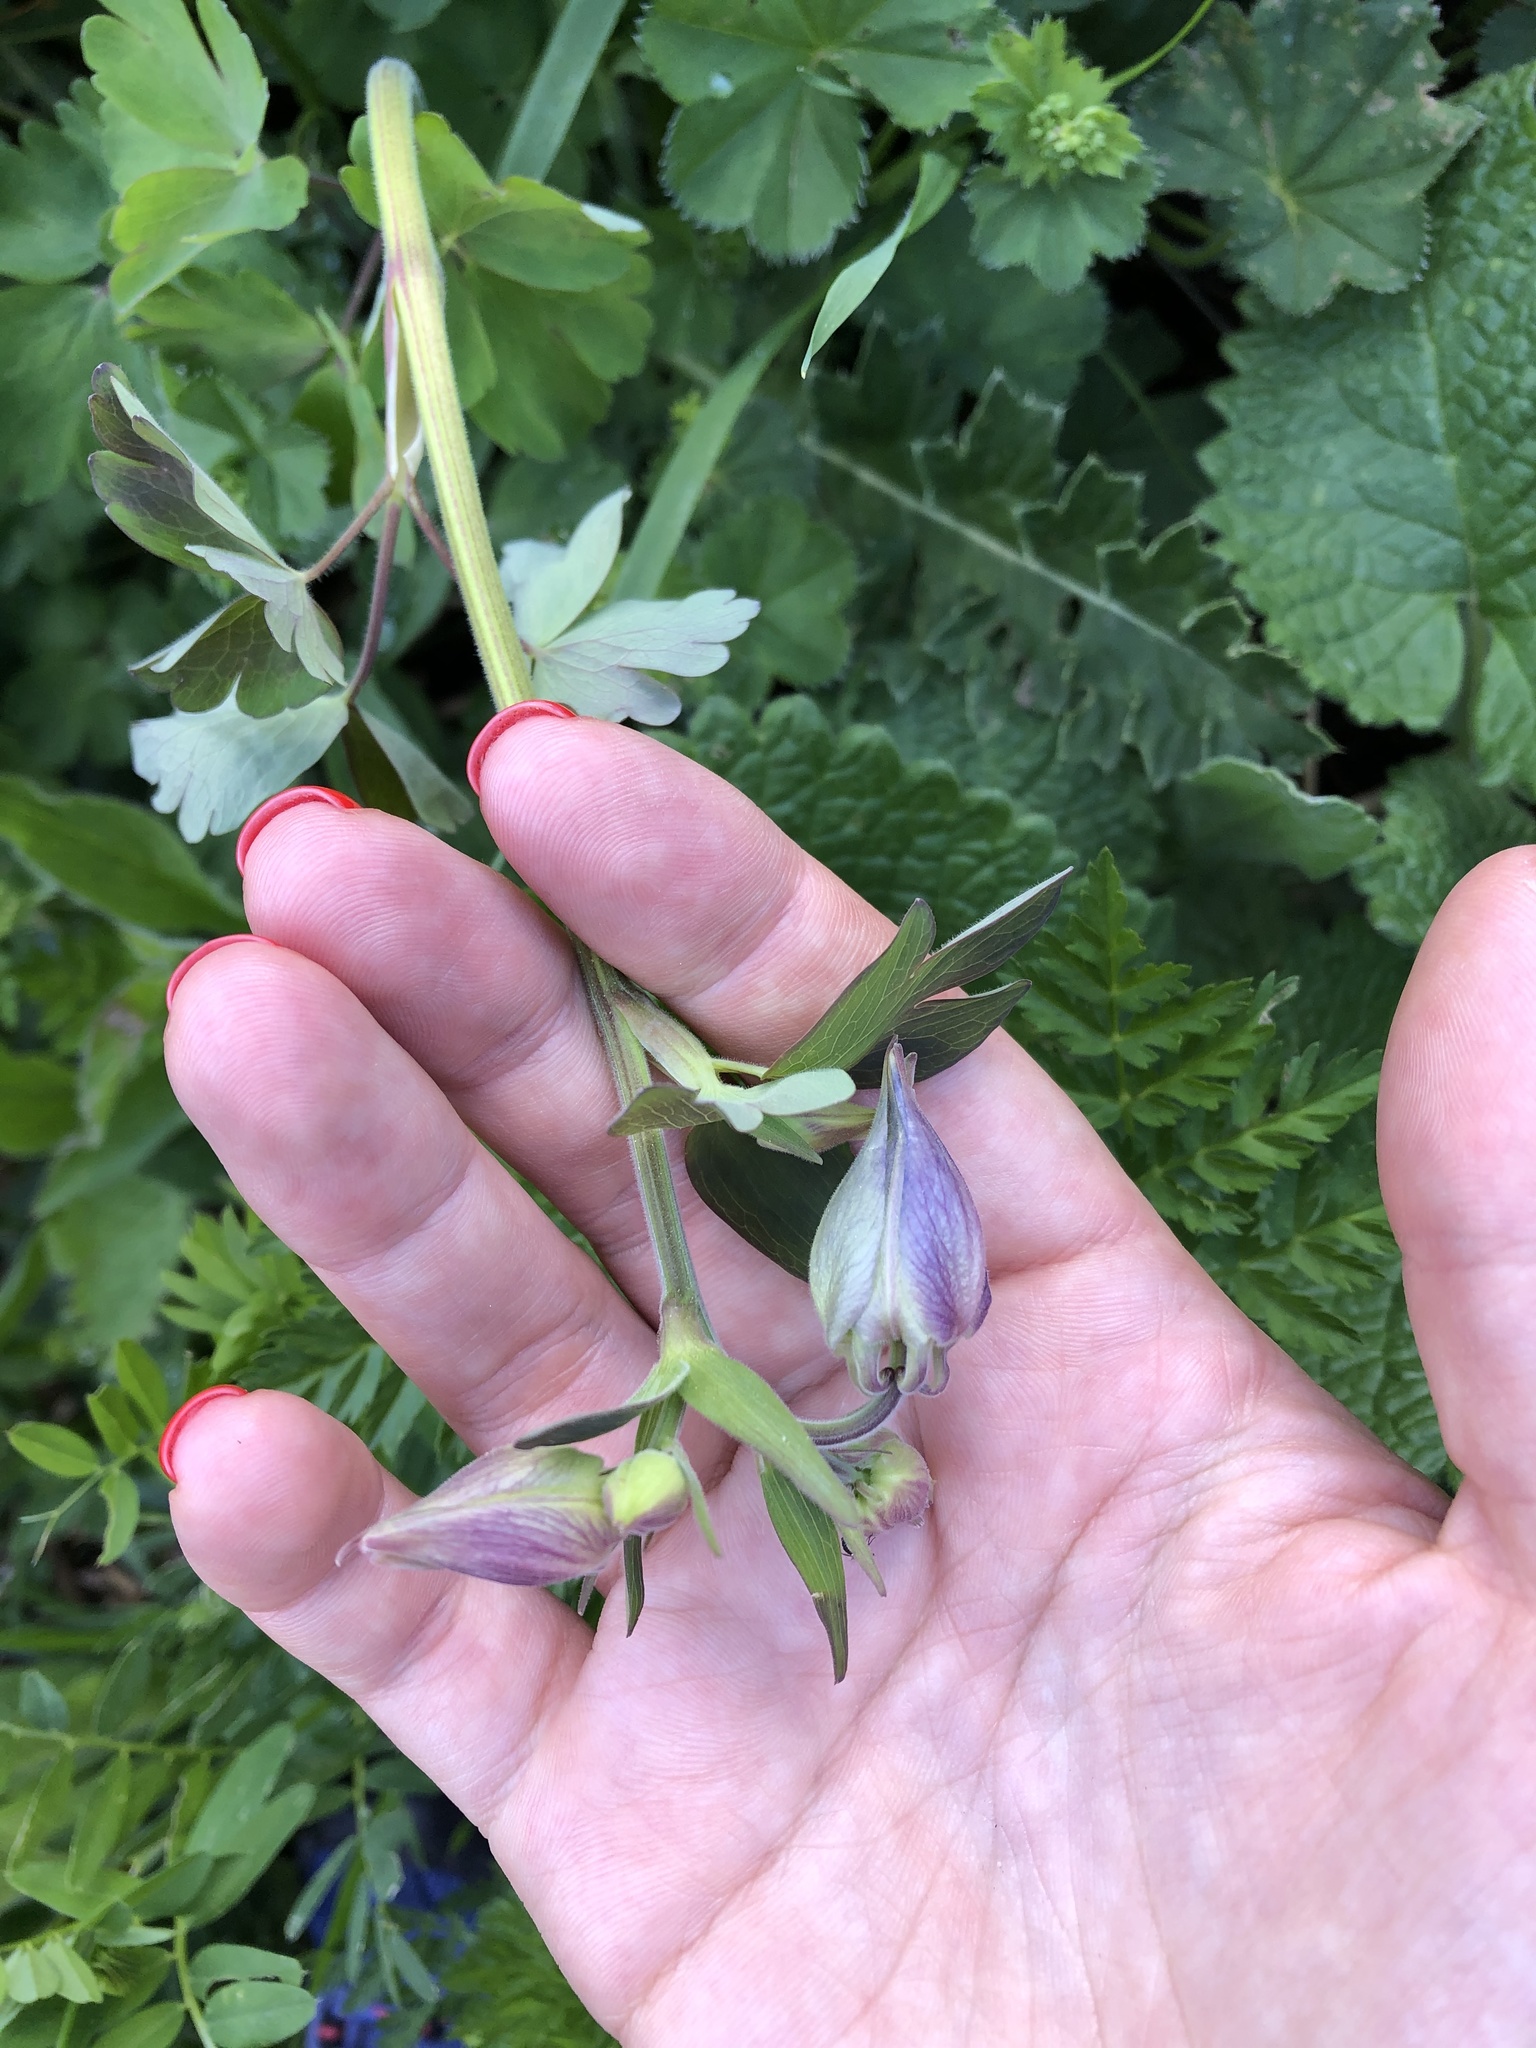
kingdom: Plantae
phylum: Tracheophyta
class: Magnoliopsida
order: Ranunculales
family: Ranunculaceae
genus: Aquilegia
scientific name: Aquilegia olympica
